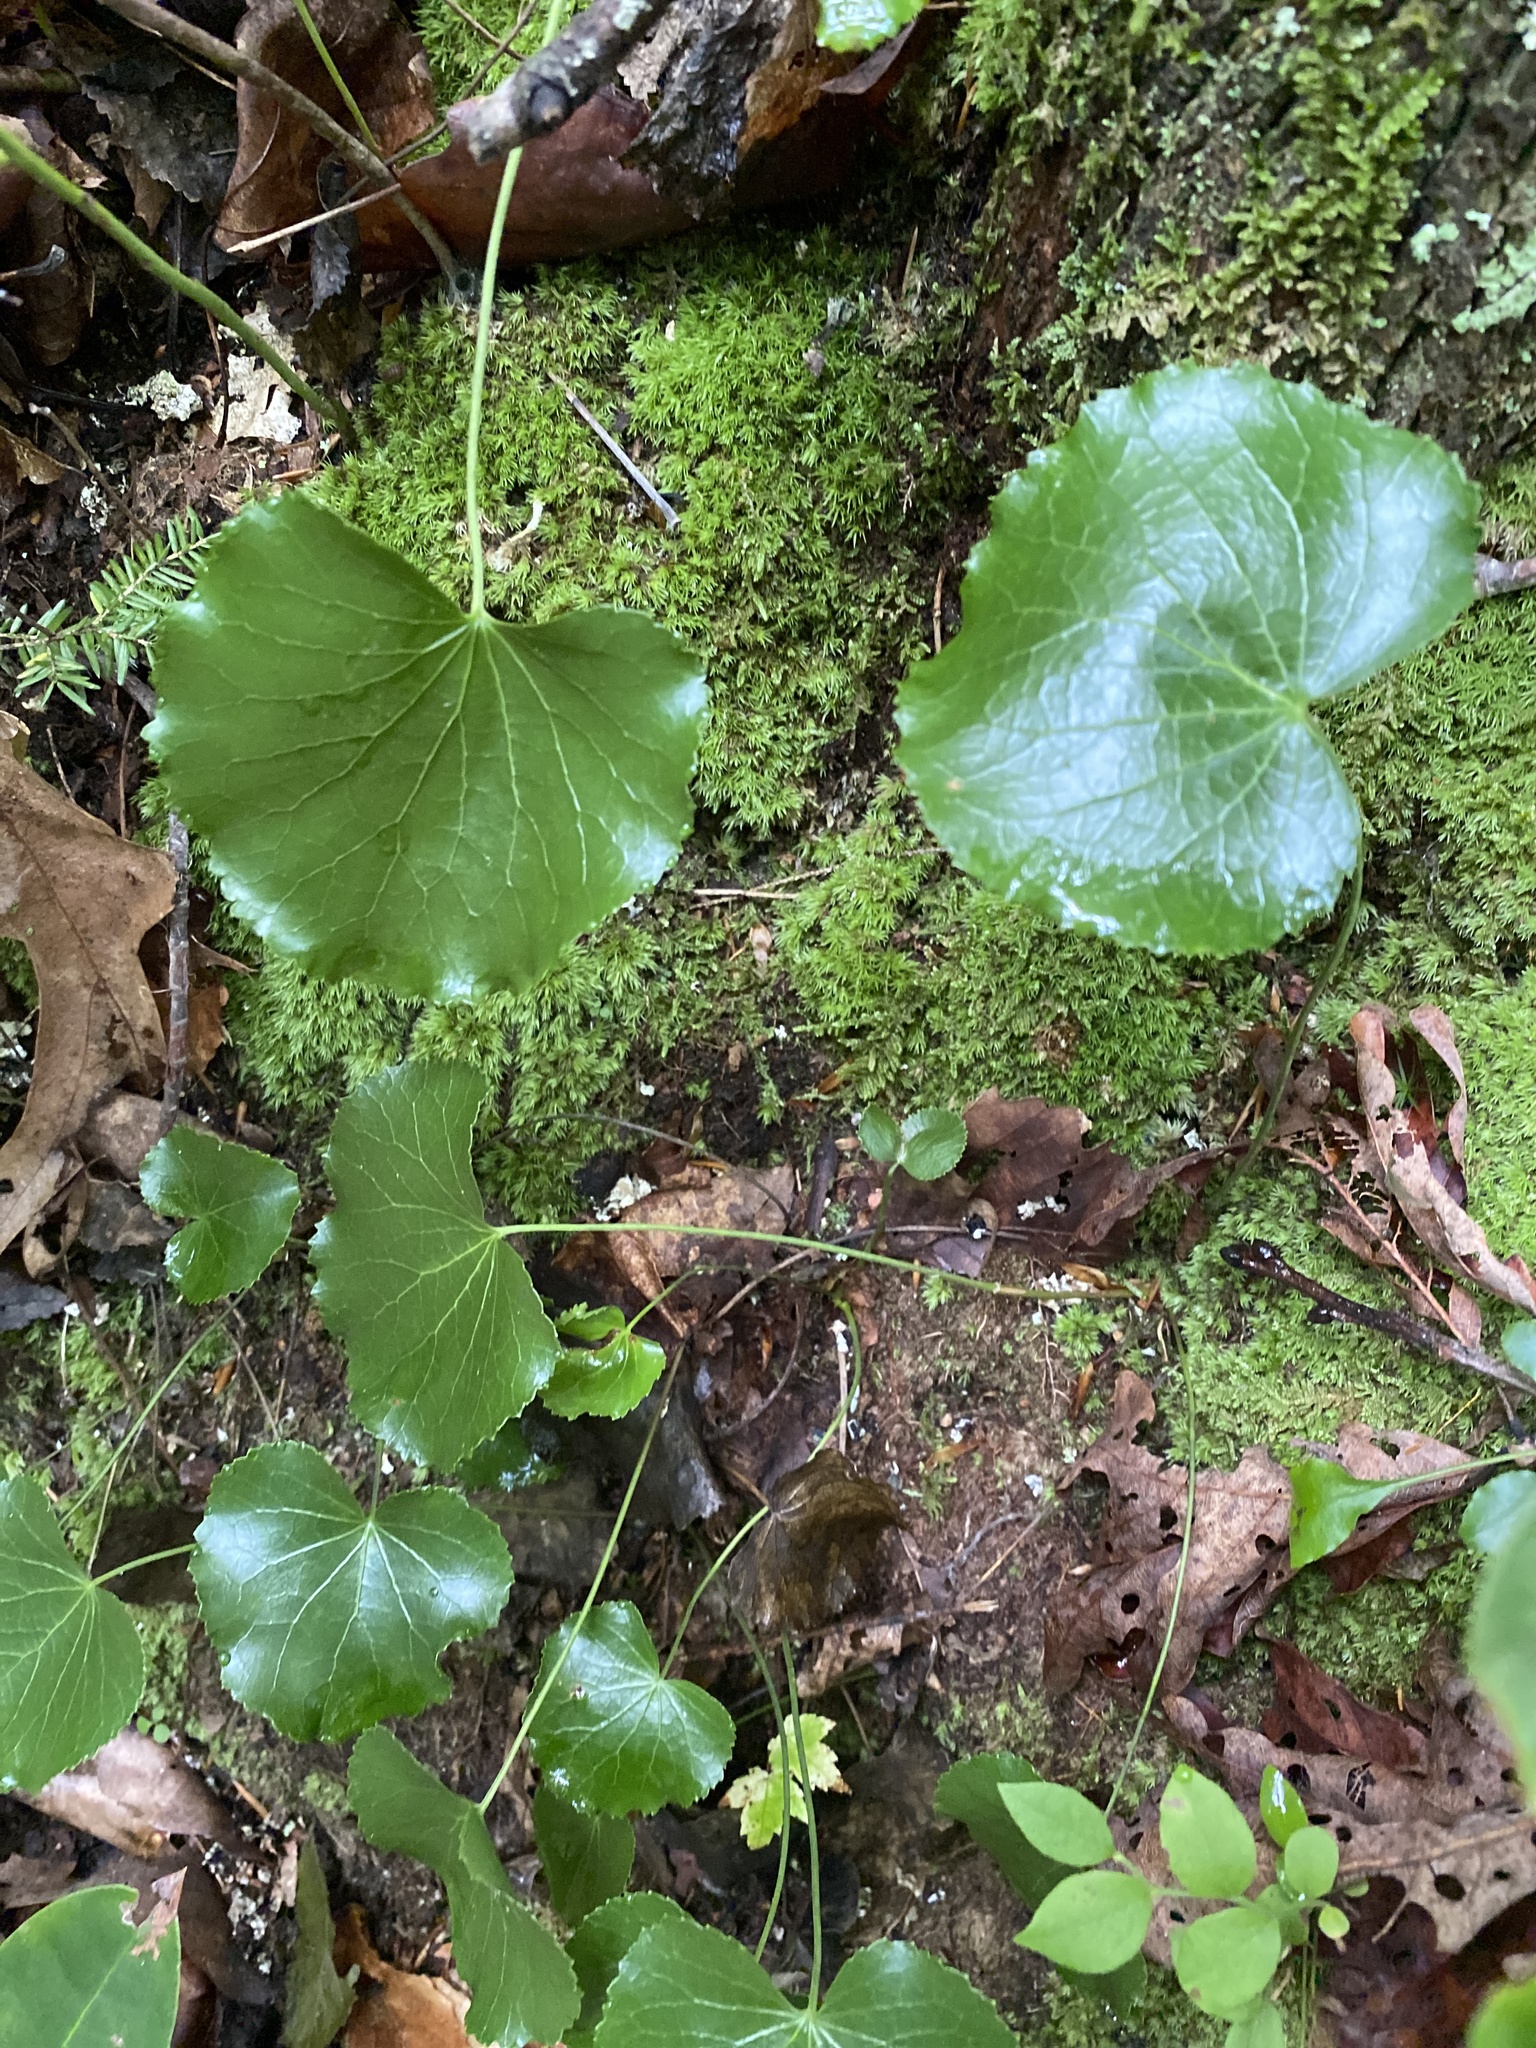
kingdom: Plantae
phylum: Tracheophyta
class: Magnoliopsida
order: Ericales
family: Diapensiaceae
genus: Galax
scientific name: Galax urceolata
